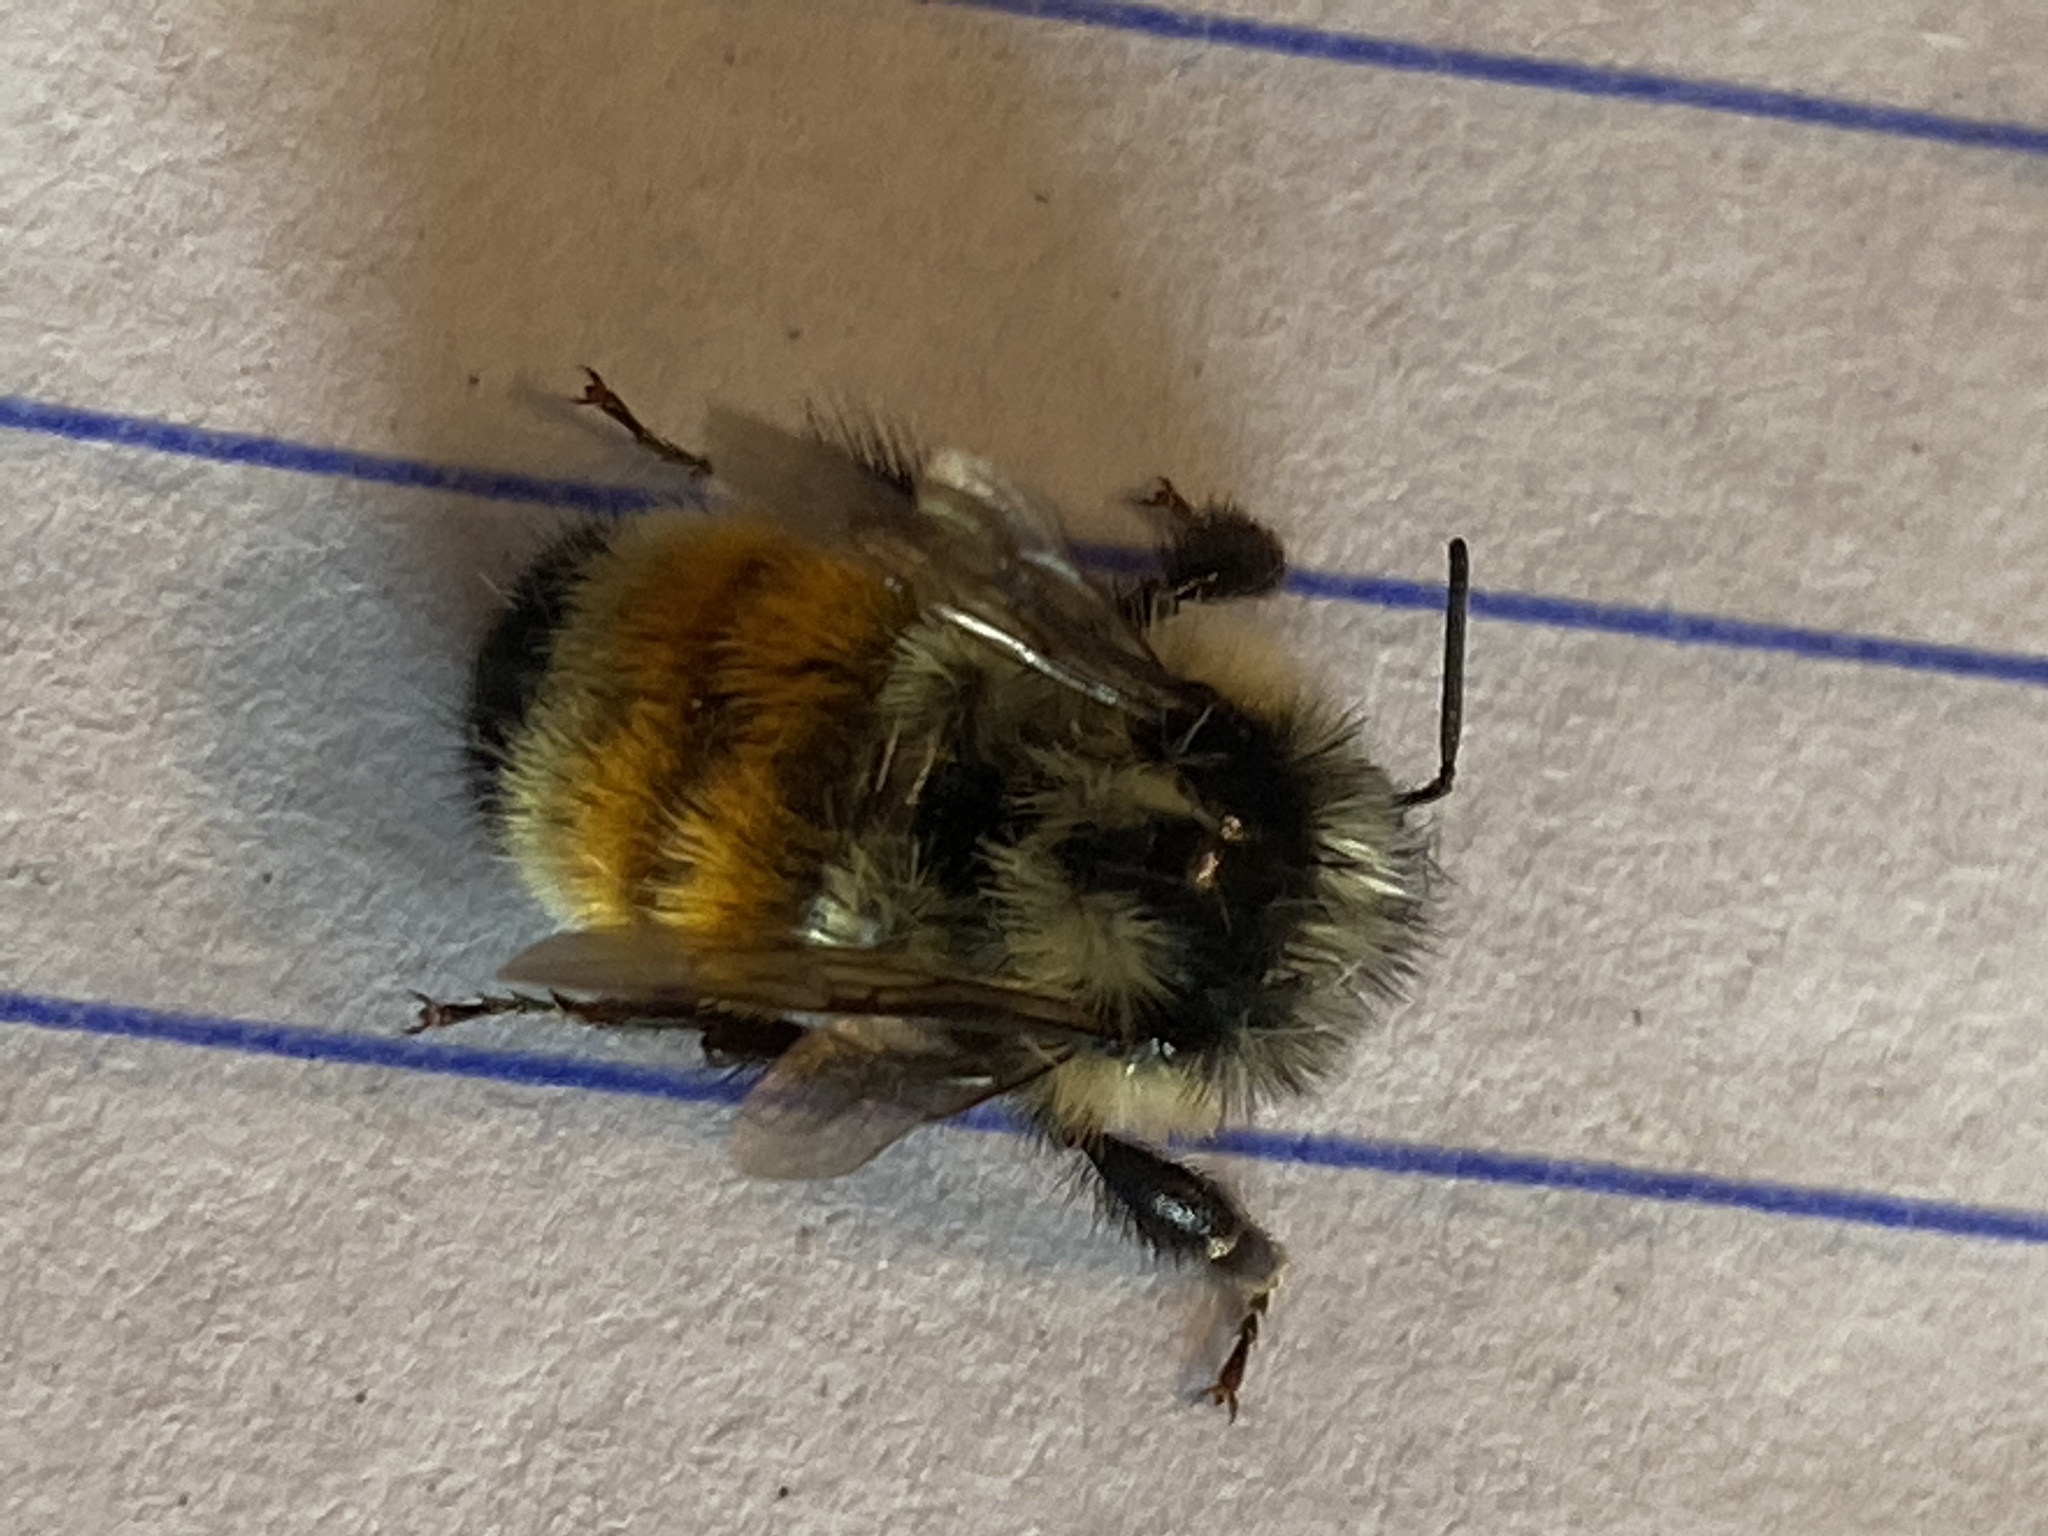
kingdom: Animalia
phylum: Arthropoda
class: Insecta
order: Hymenoptera
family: Apidae
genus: Bombus
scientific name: Bombus ternarius
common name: Tri-colored bumble bee
